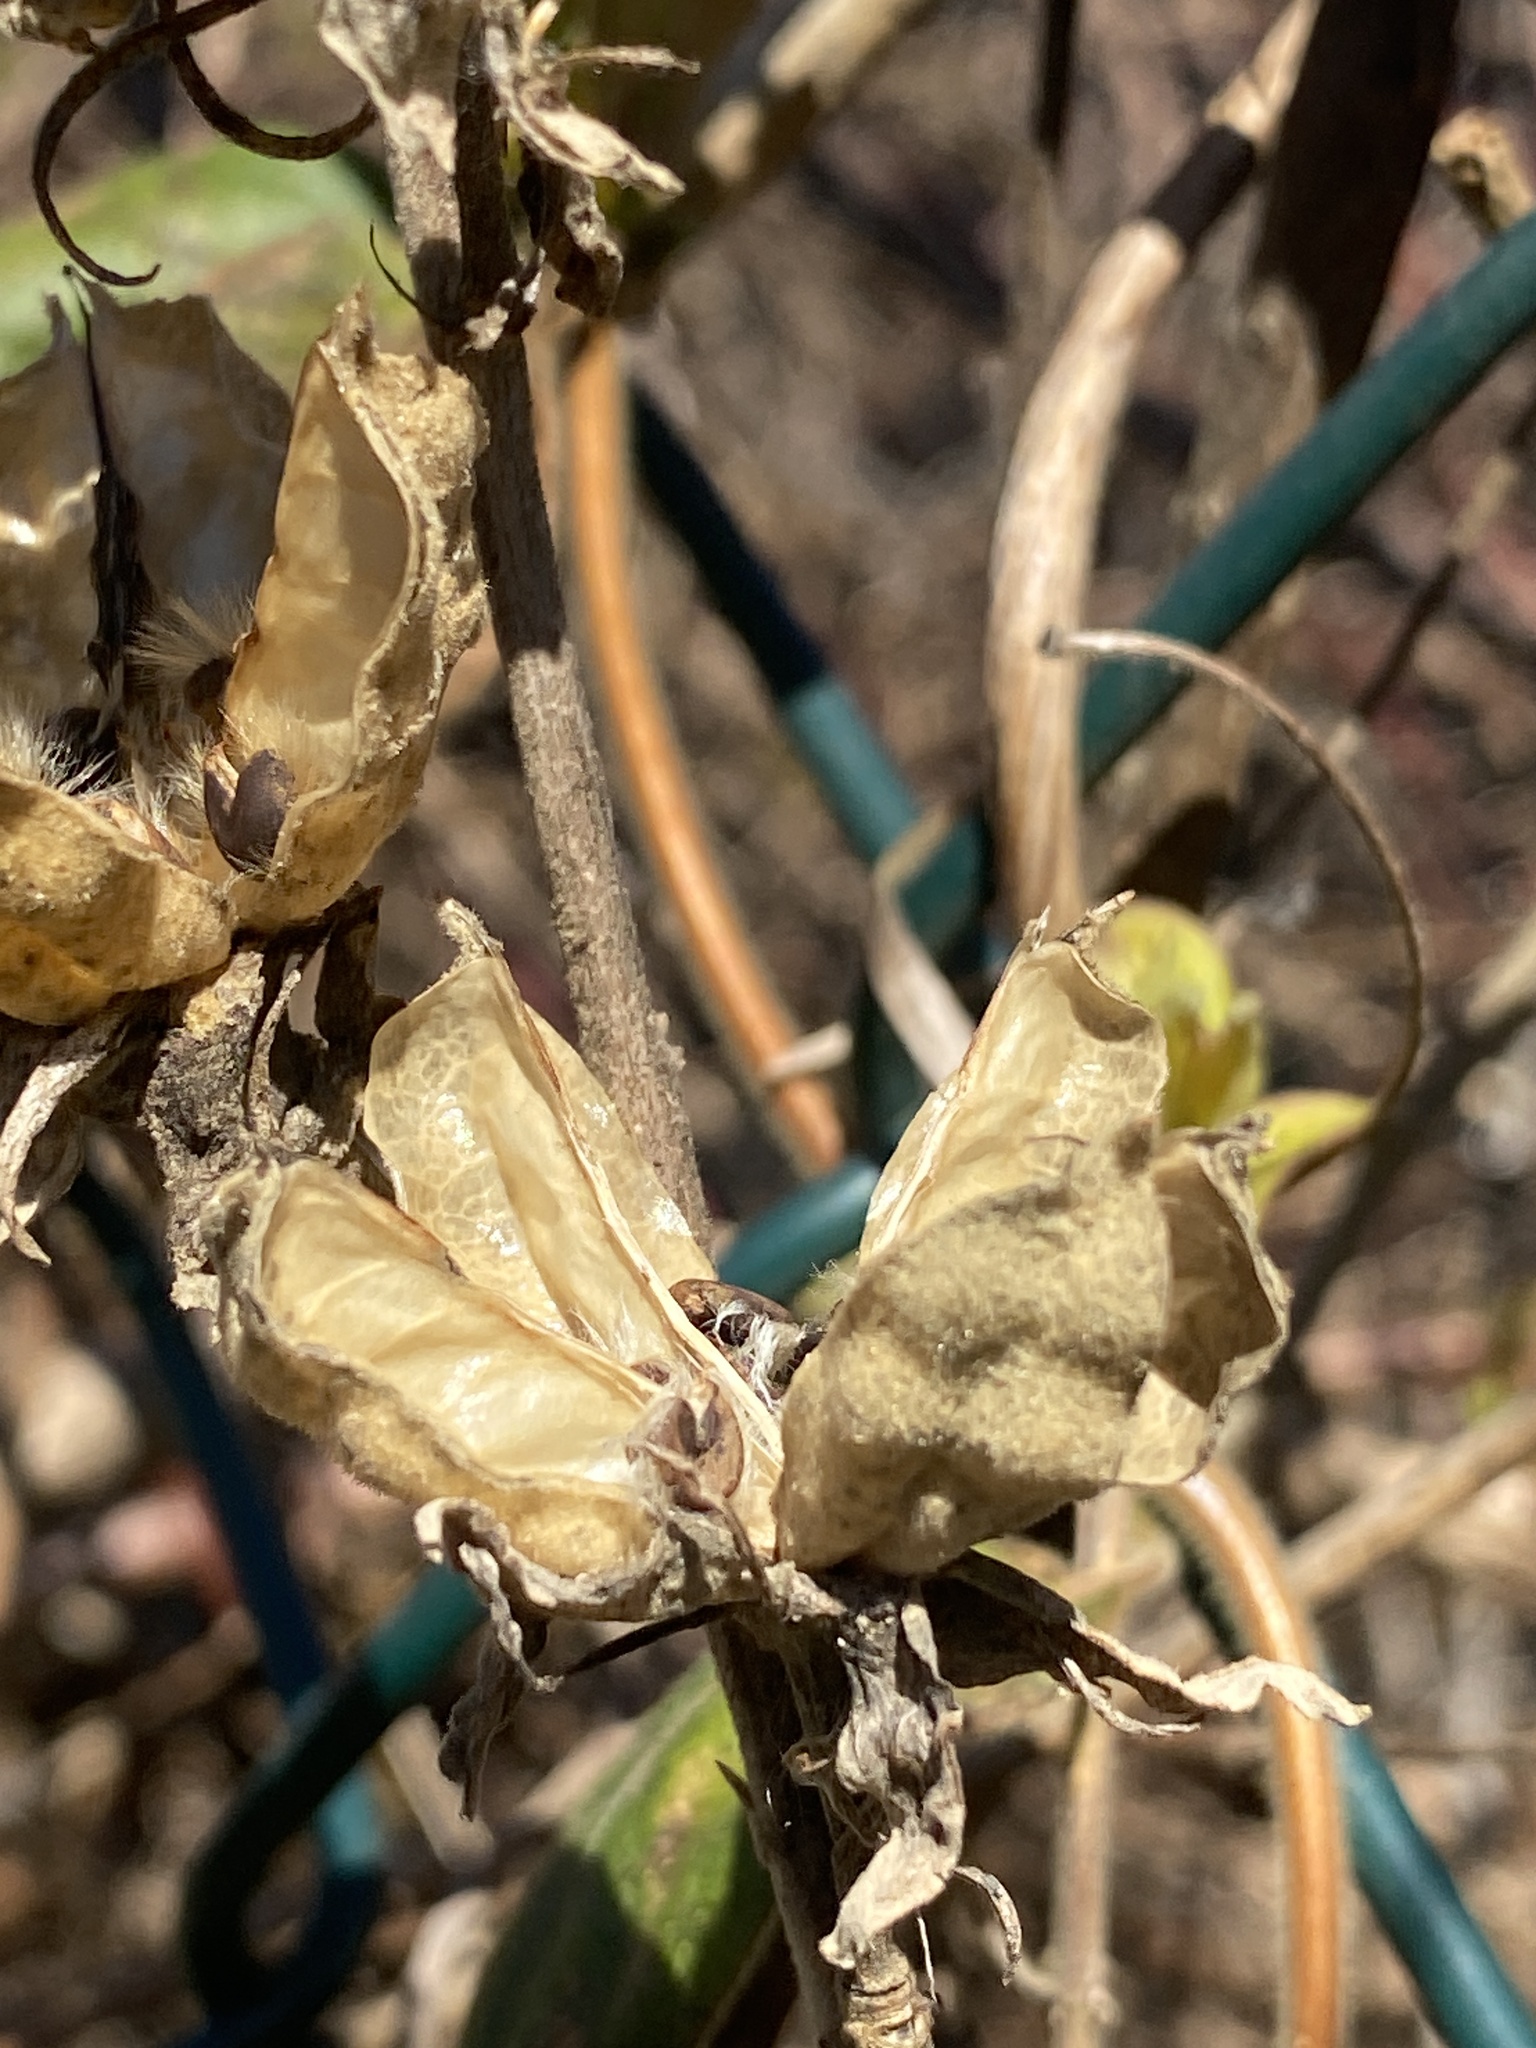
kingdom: Plantae
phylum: Tracheophyta
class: Magnoliopsida
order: Malvales
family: Malvaceae
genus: Hibiscus
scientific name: Hibiscus syriacus
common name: Syrian ketmia
